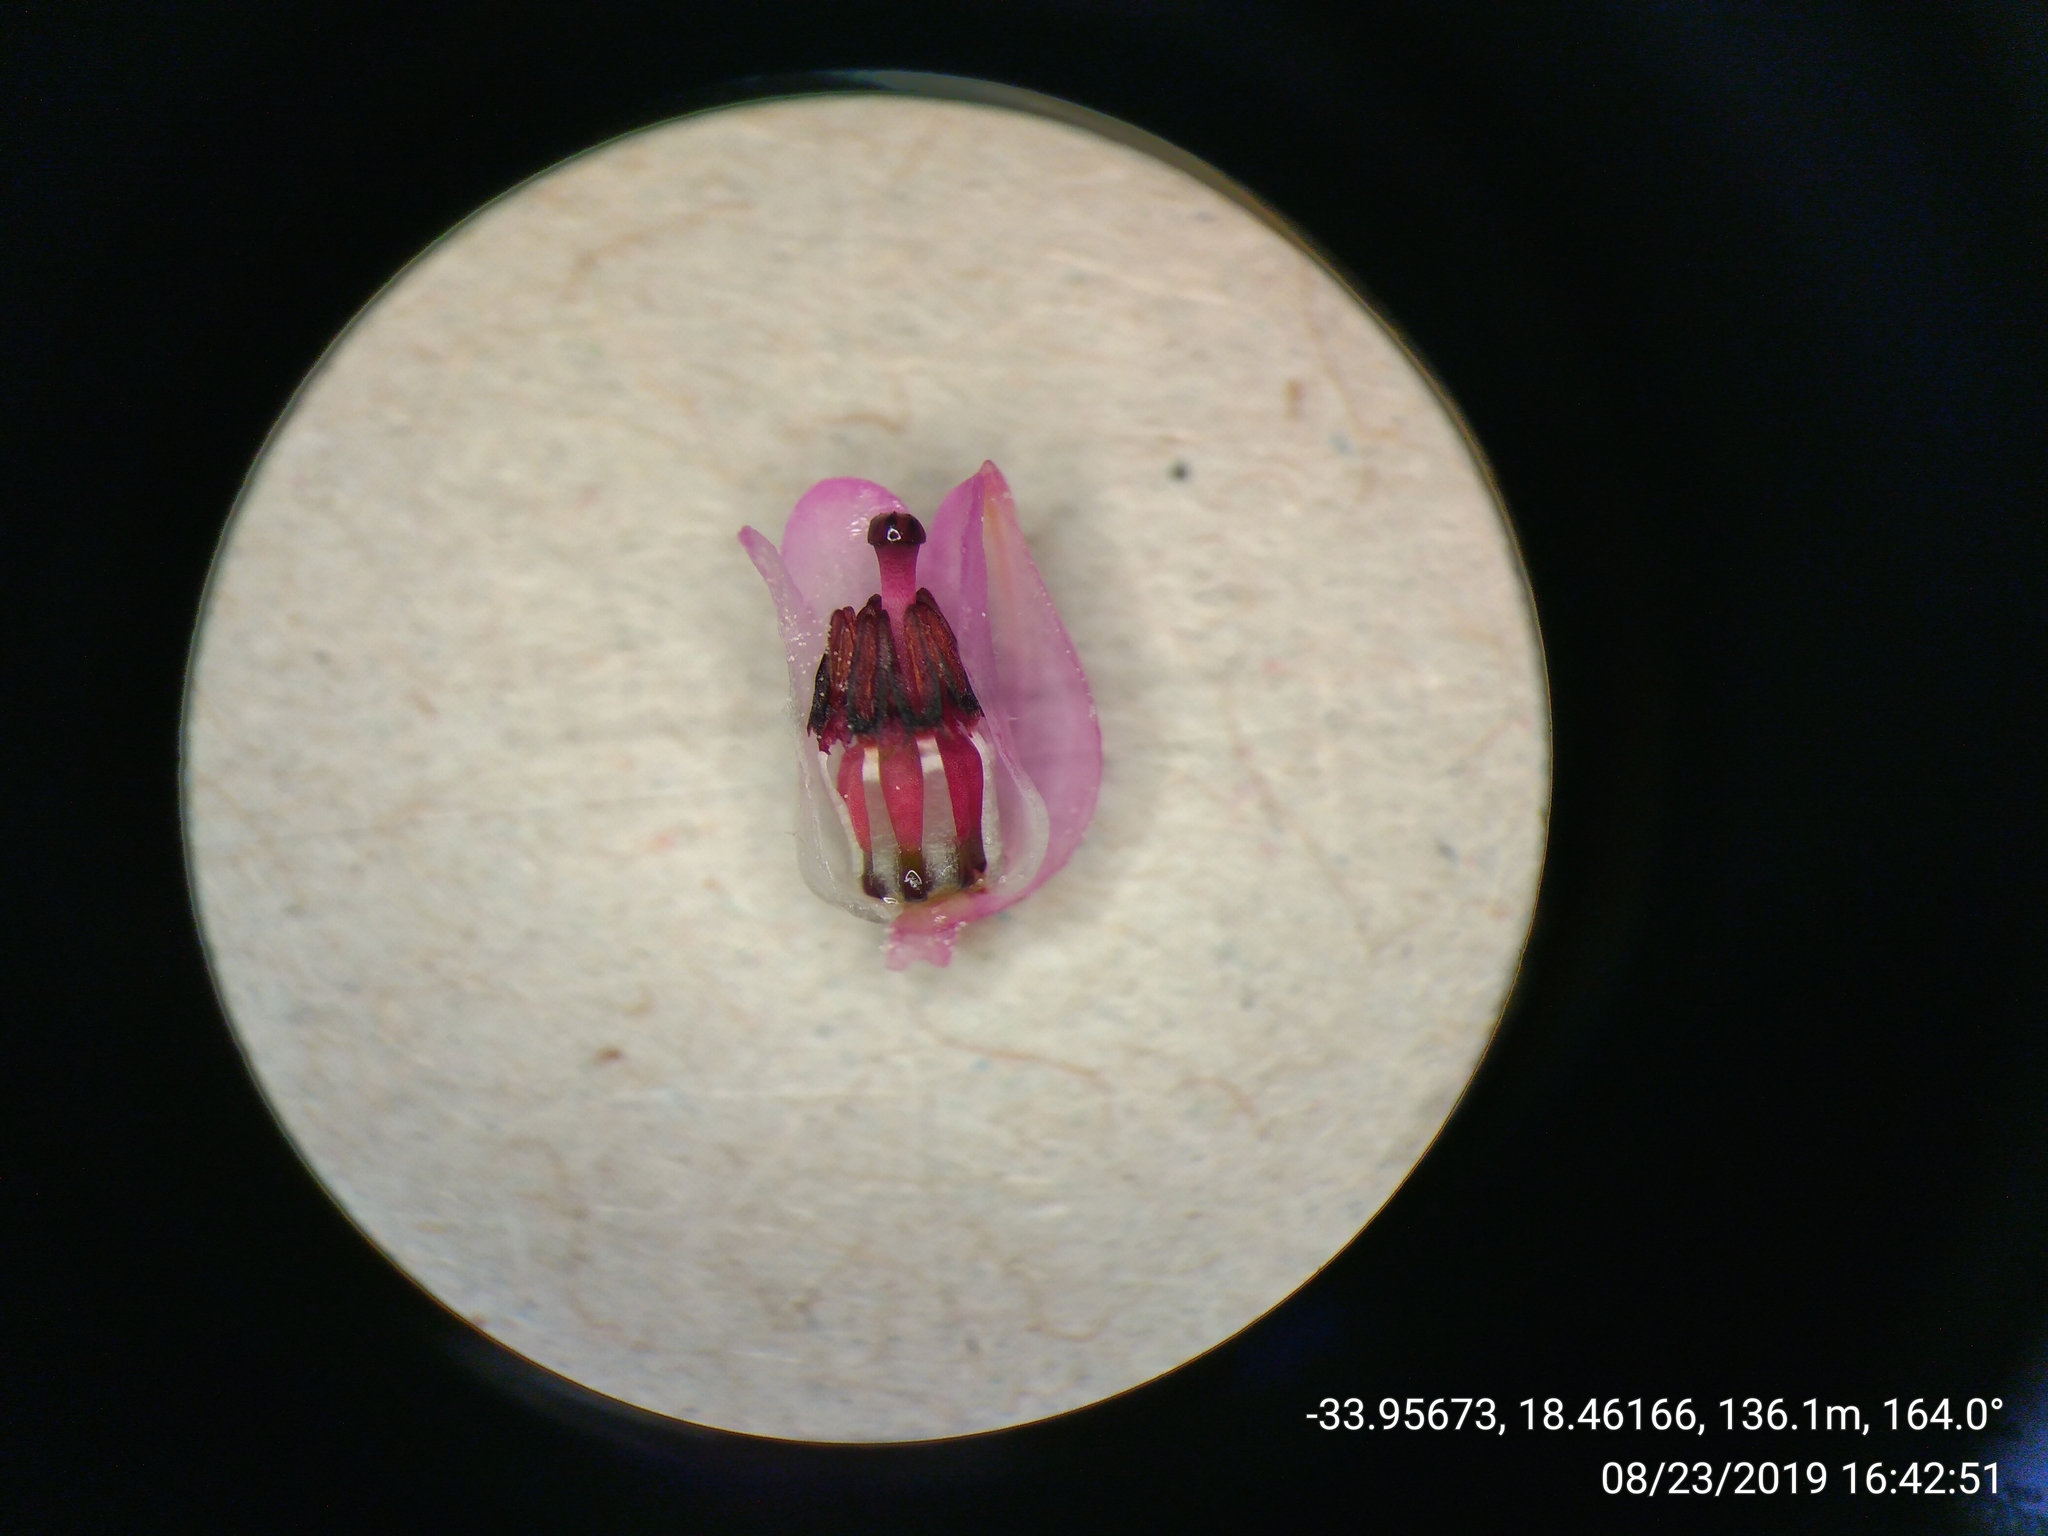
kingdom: Plantae
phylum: Tracheophyta
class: Magnoliopsida
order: Ericales
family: Ericaceae
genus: Erica
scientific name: Erica palliiflora
